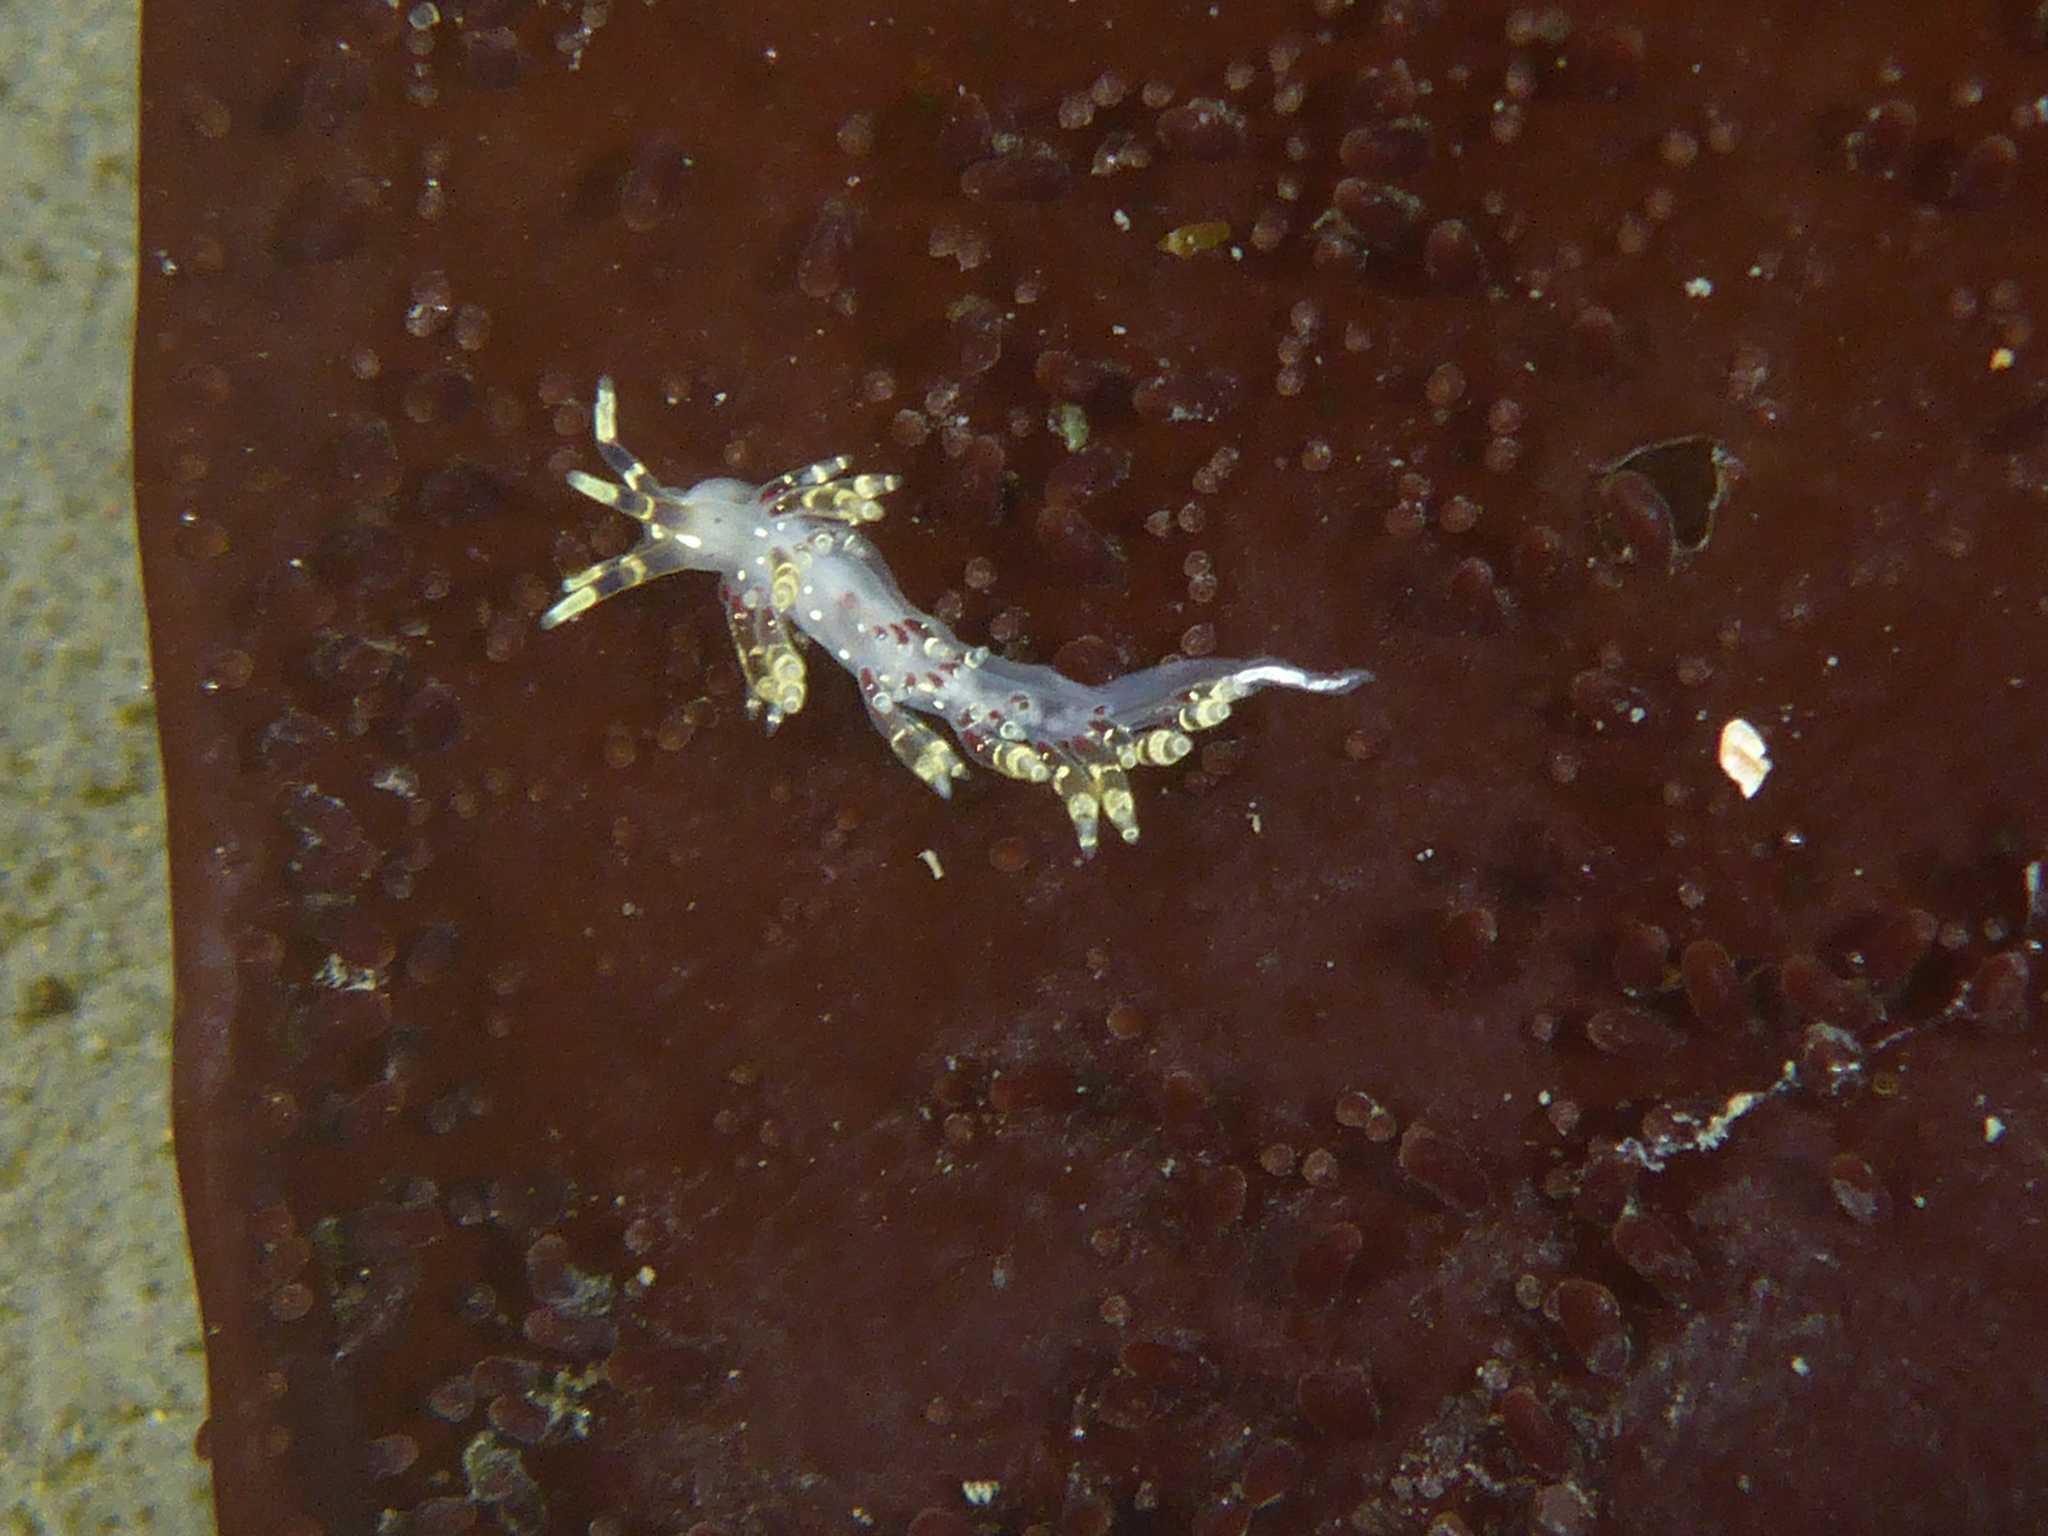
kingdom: Animalia
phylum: Mollusca
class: Gastropoda
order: Nudibranchia
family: Abronicidae
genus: Abronica
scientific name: Abronica abronia
